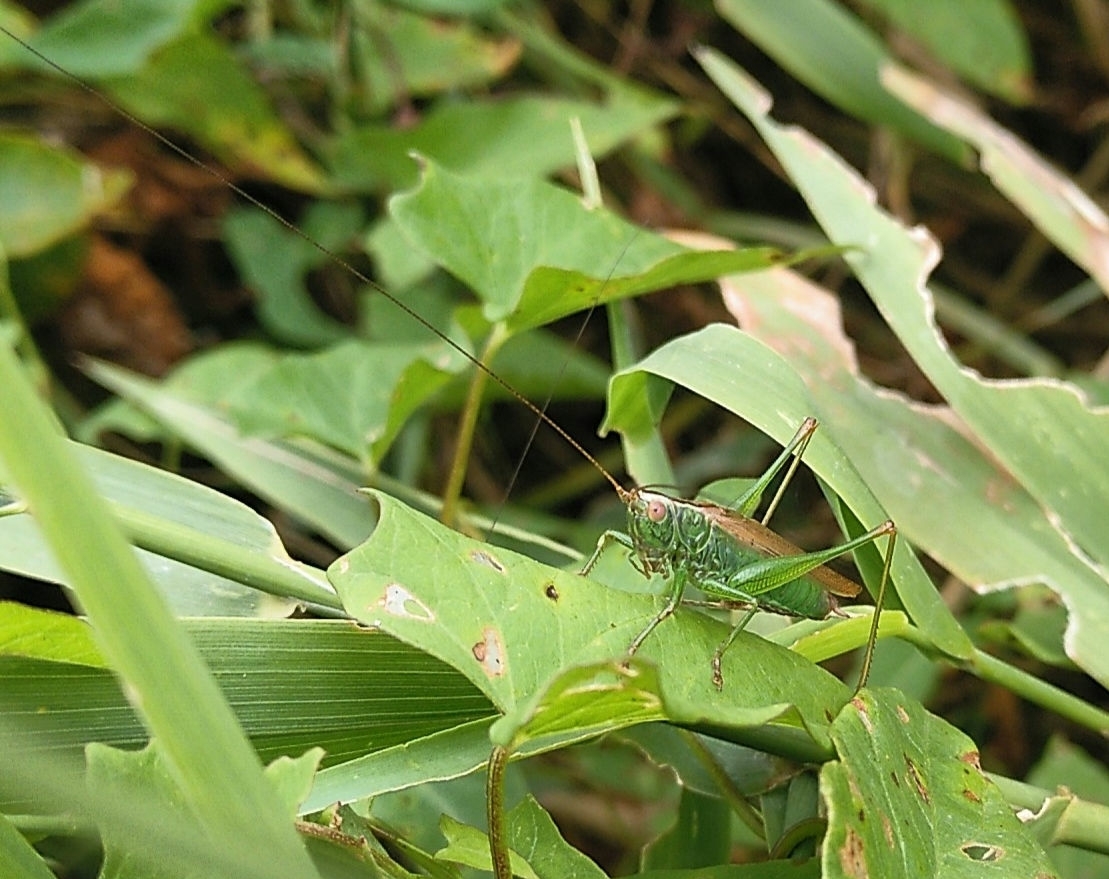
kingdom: Animalia
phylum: Arthropoda
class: Insecta
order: Orthoptera
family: Tettigoniidae
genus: Conocephalus
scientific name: Conocephalus fuscus
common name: Long-winged conehead
